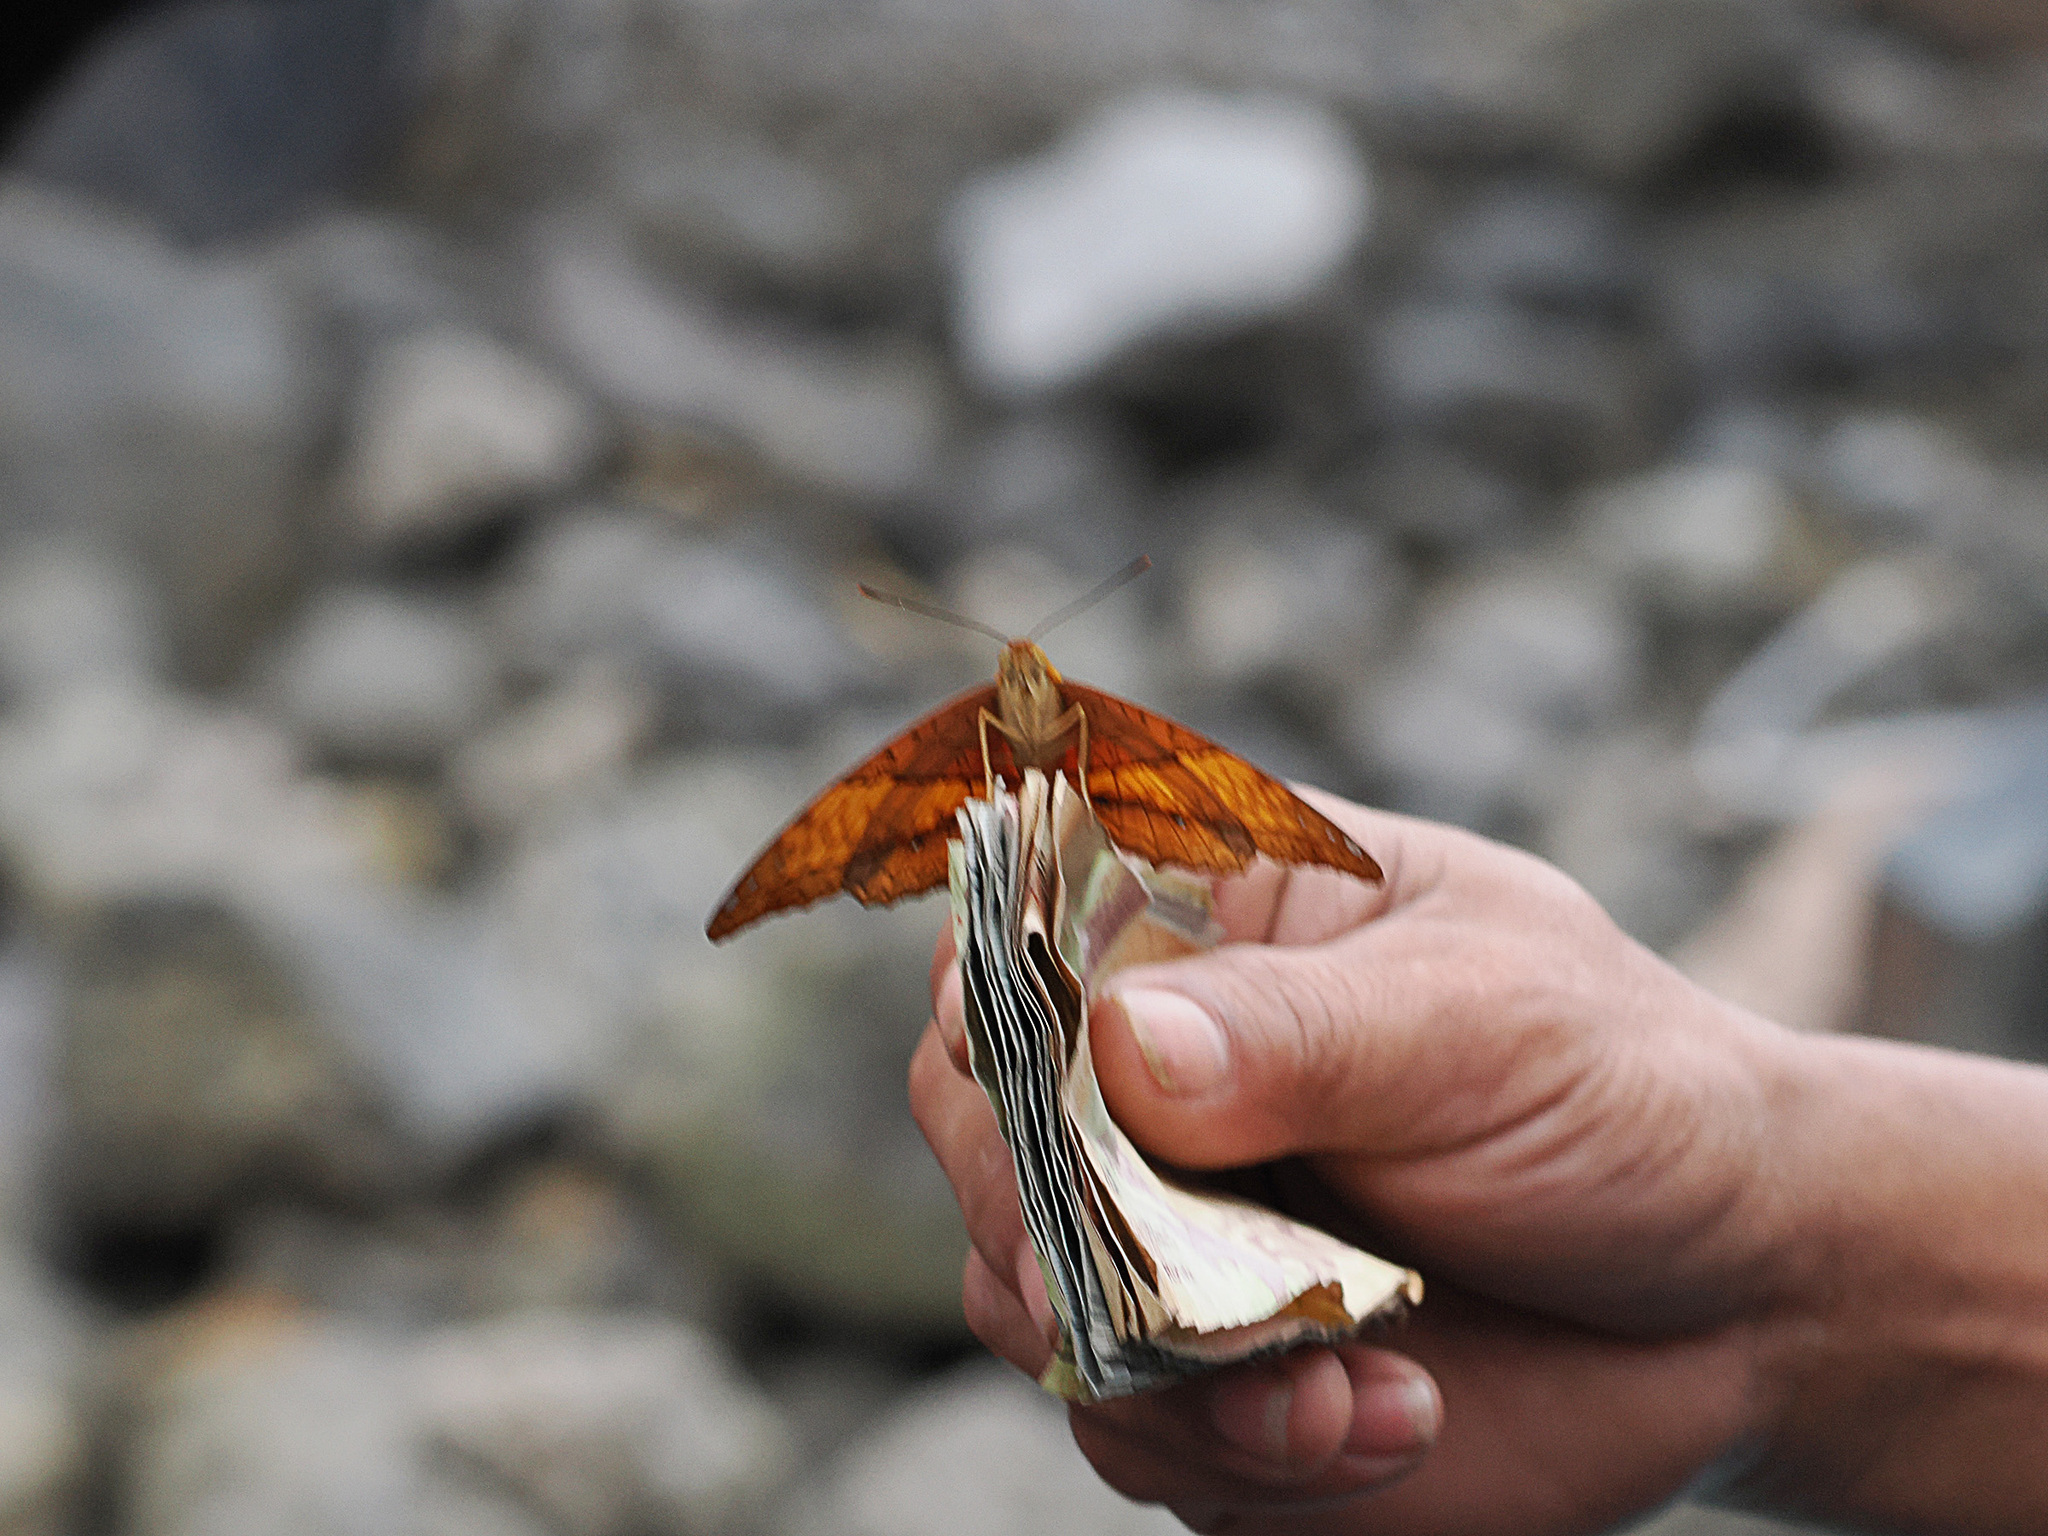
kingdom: Animalia
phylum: Arthropoda
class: Insecta
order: Lepidoptera
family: Nymphalidae
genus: Vindula
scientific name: Vindula erota
